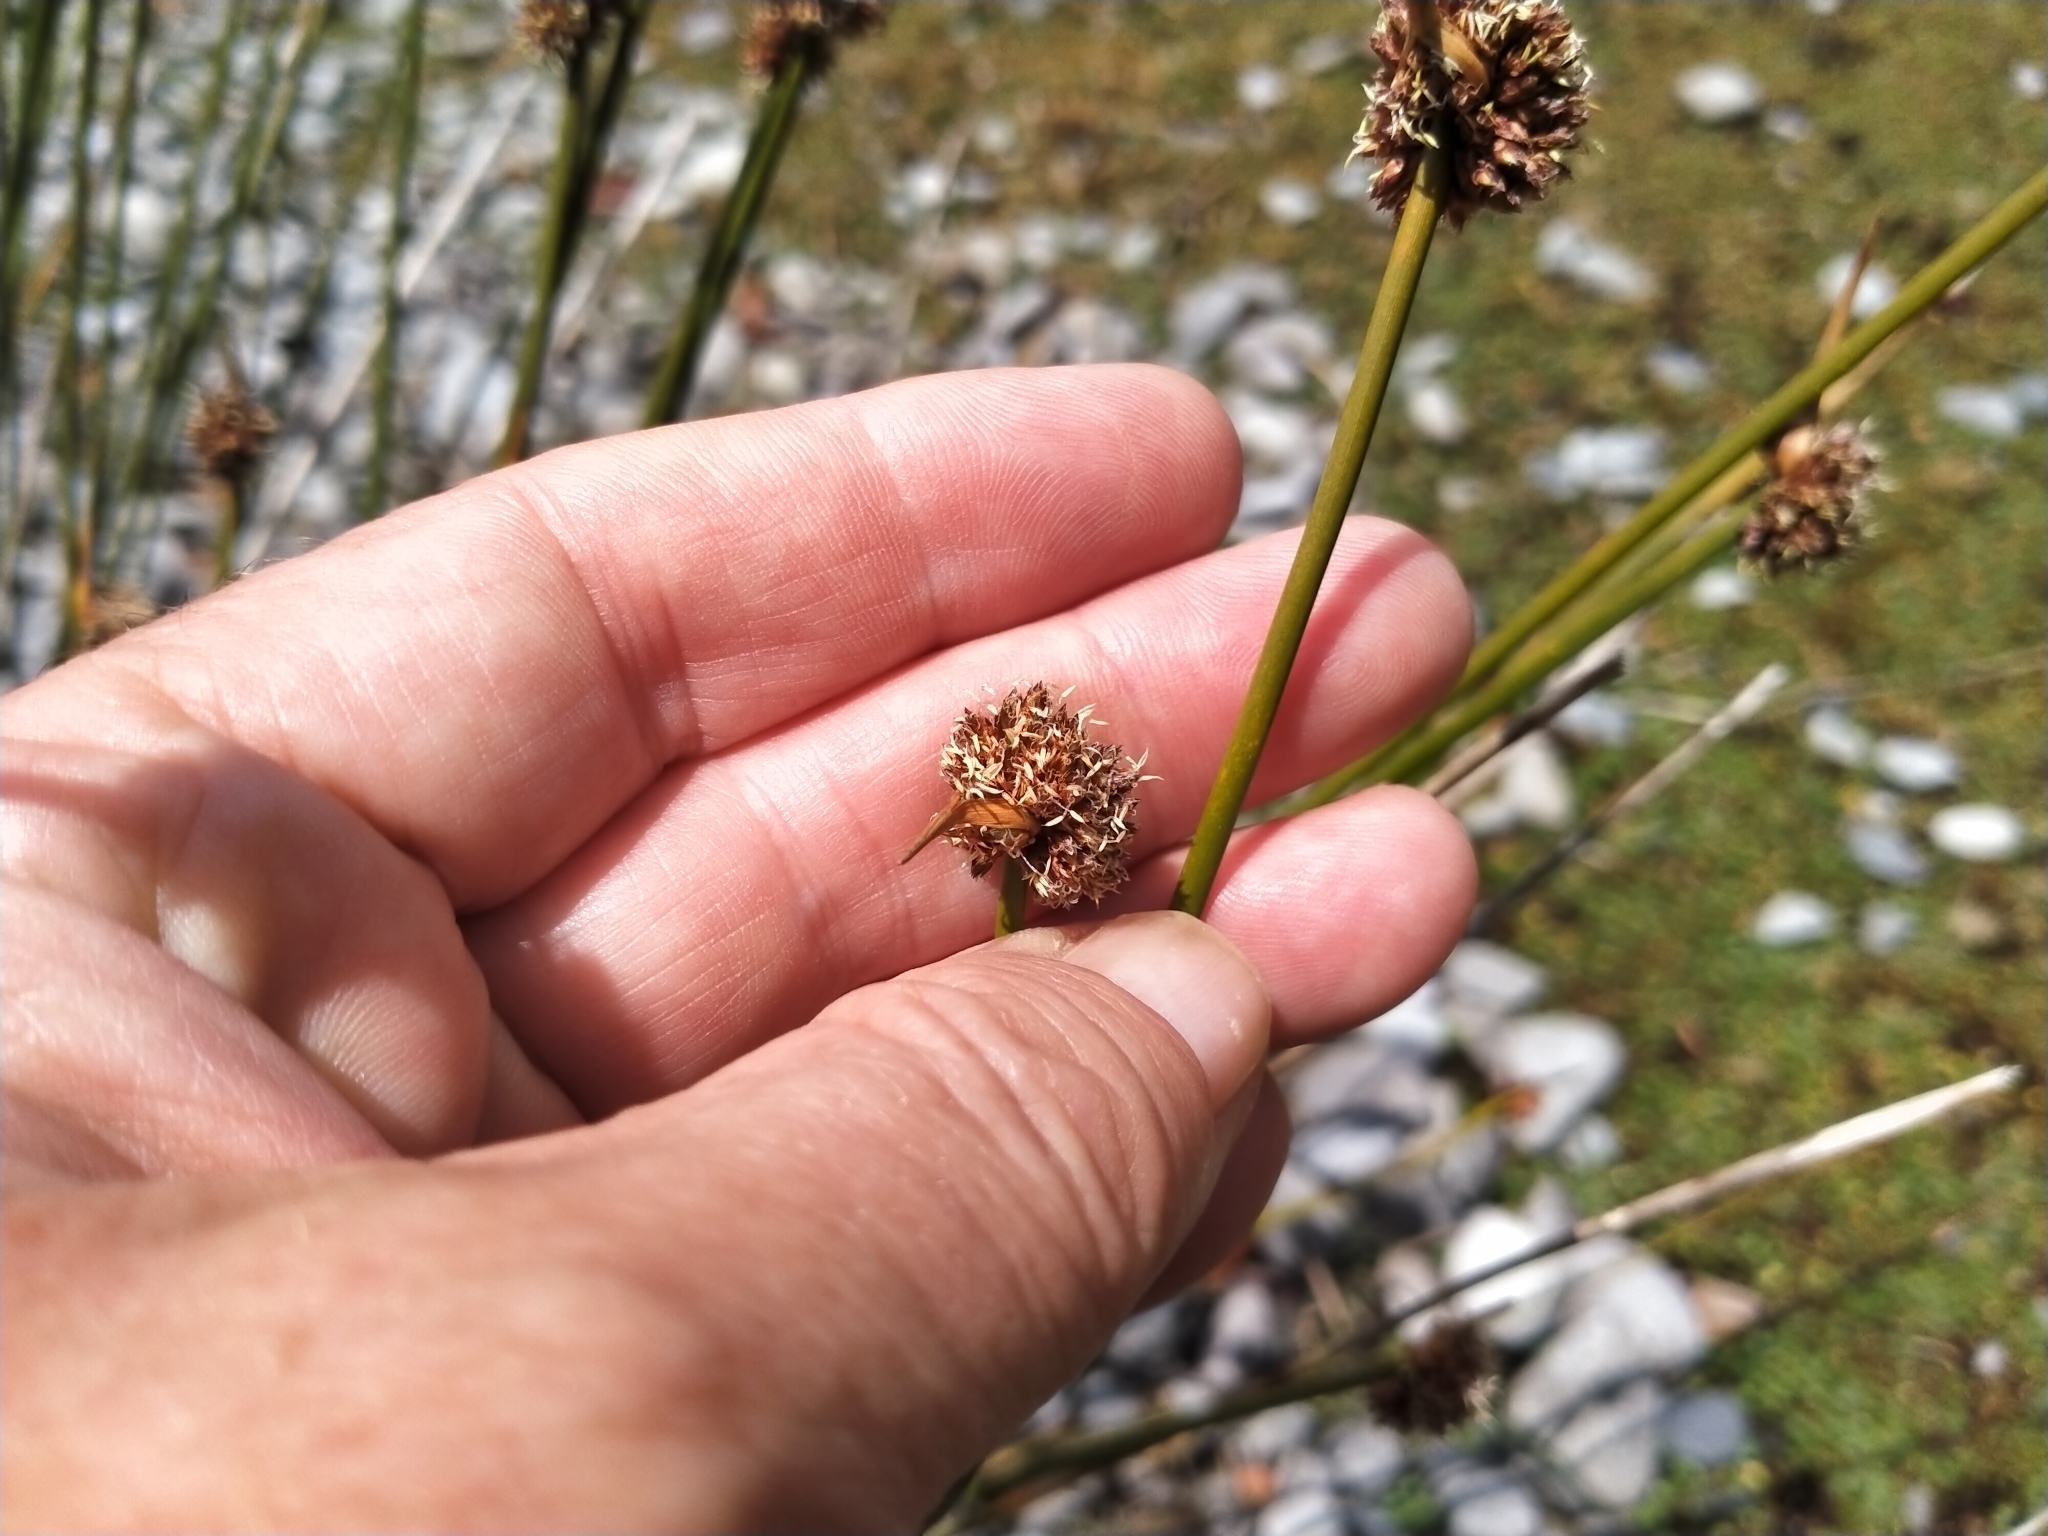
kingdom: Plantae
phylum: Tracheophyta
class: Liliopsida
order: Poales
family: Cyperaceae
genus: Ficinia
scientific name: Ficinia nodosa
